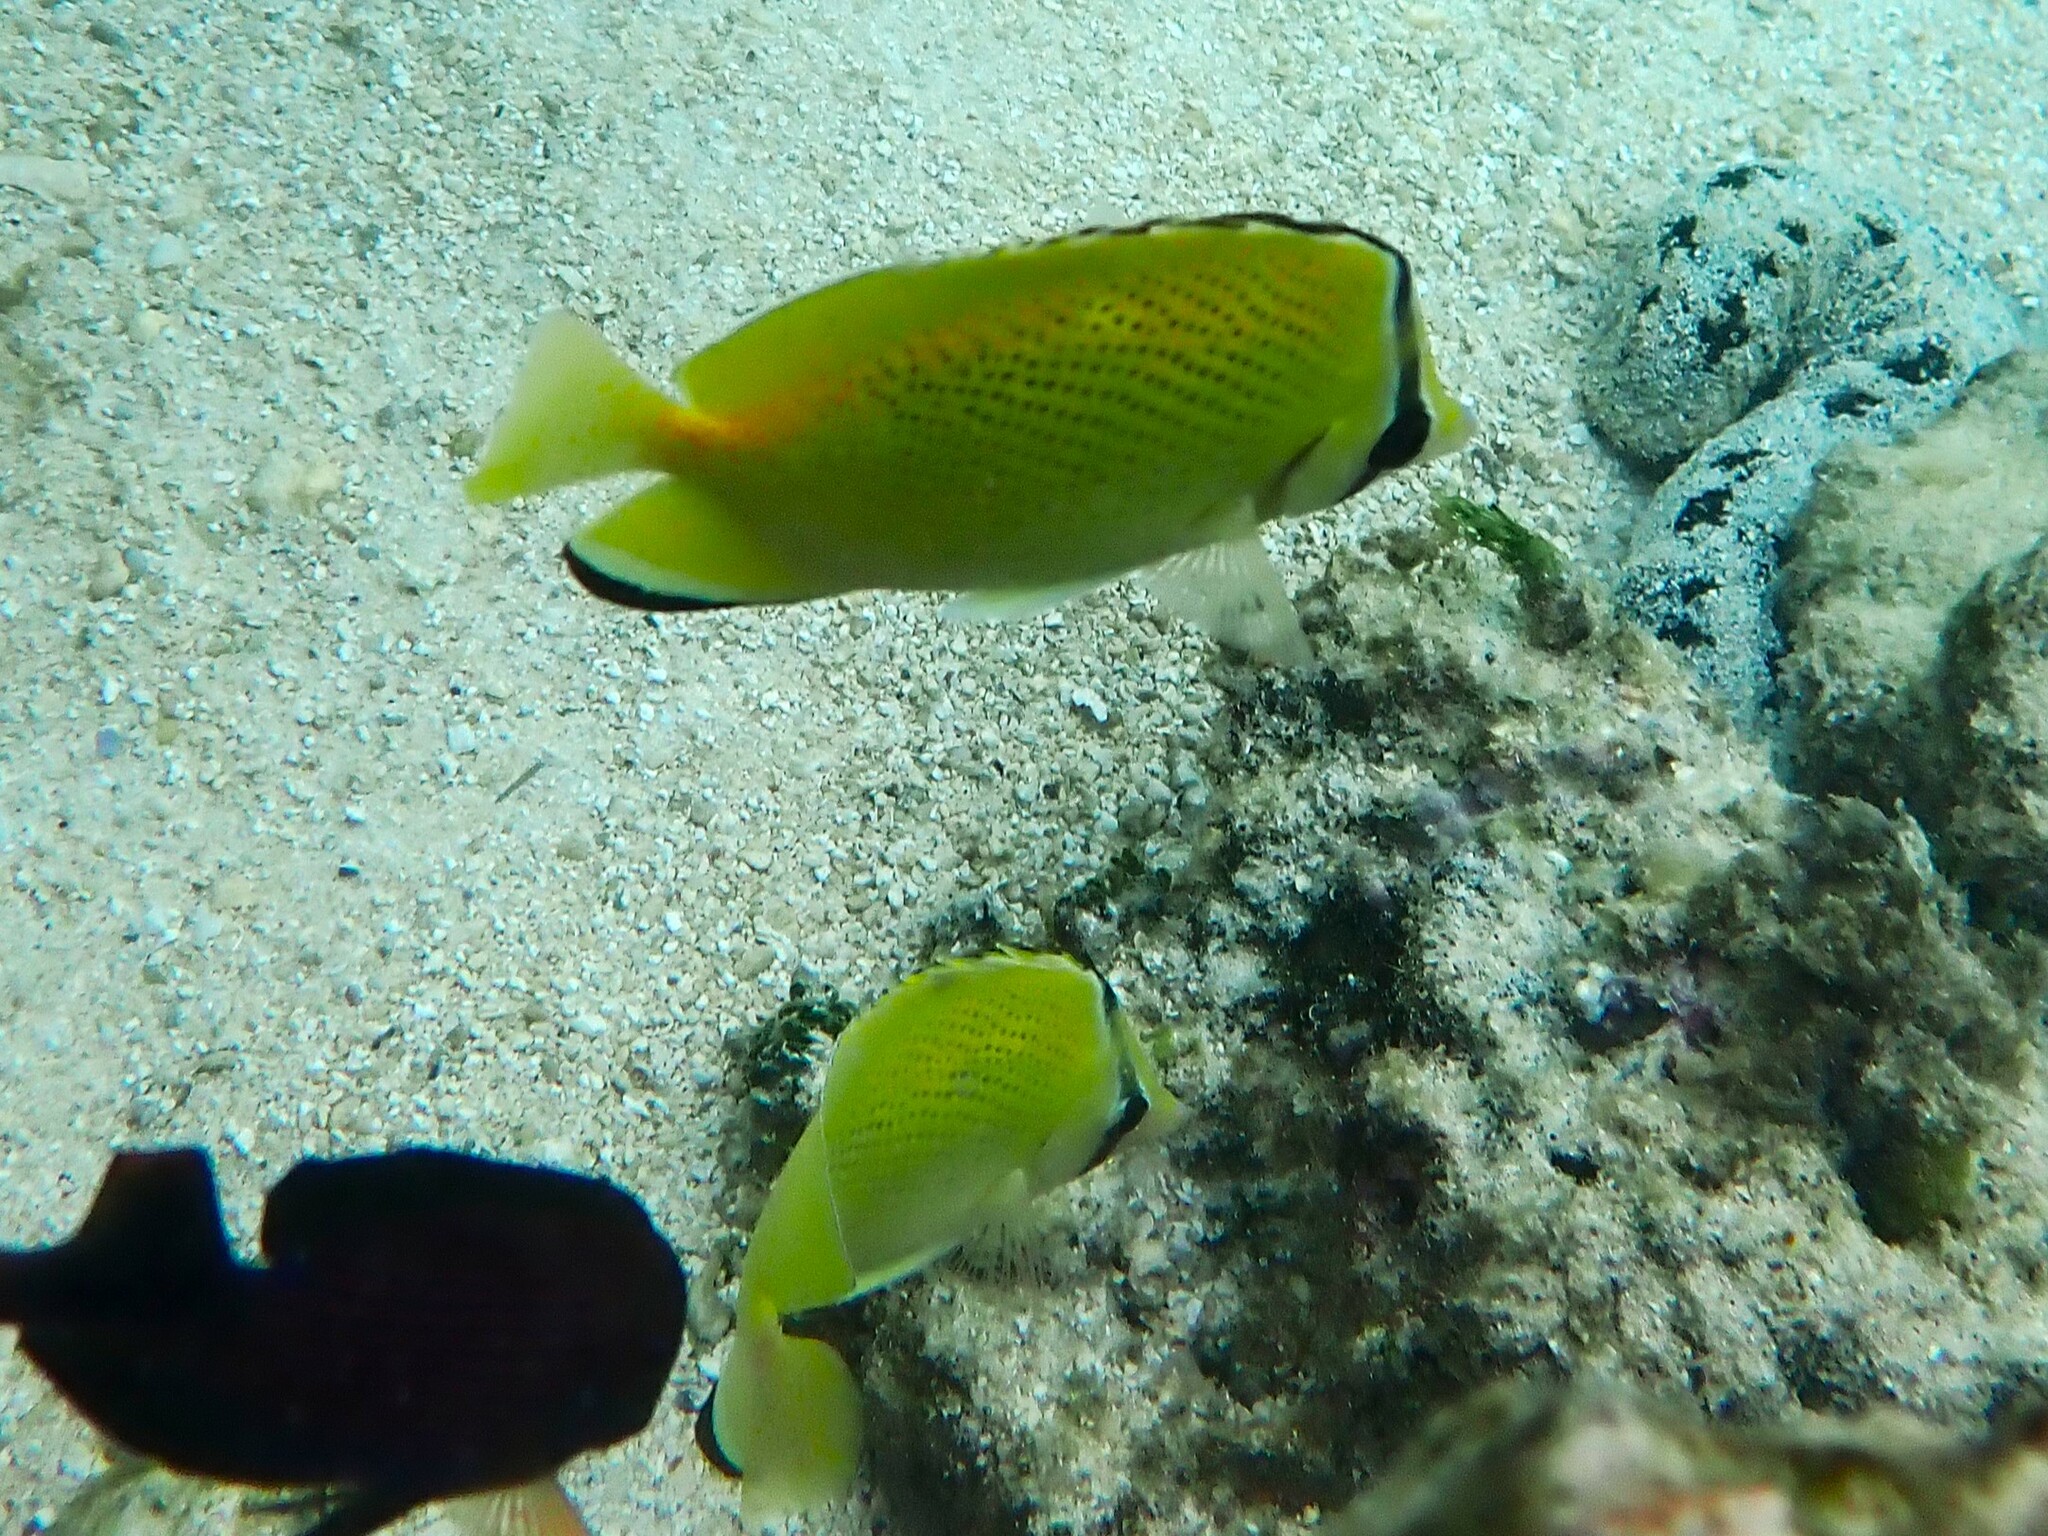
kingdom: Animalia
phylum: Chordata
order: Perciformes
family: Chaetodontidae
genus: Chaetodon
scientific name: Chaetodon citrinellus
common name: Speckled butterflyfish
